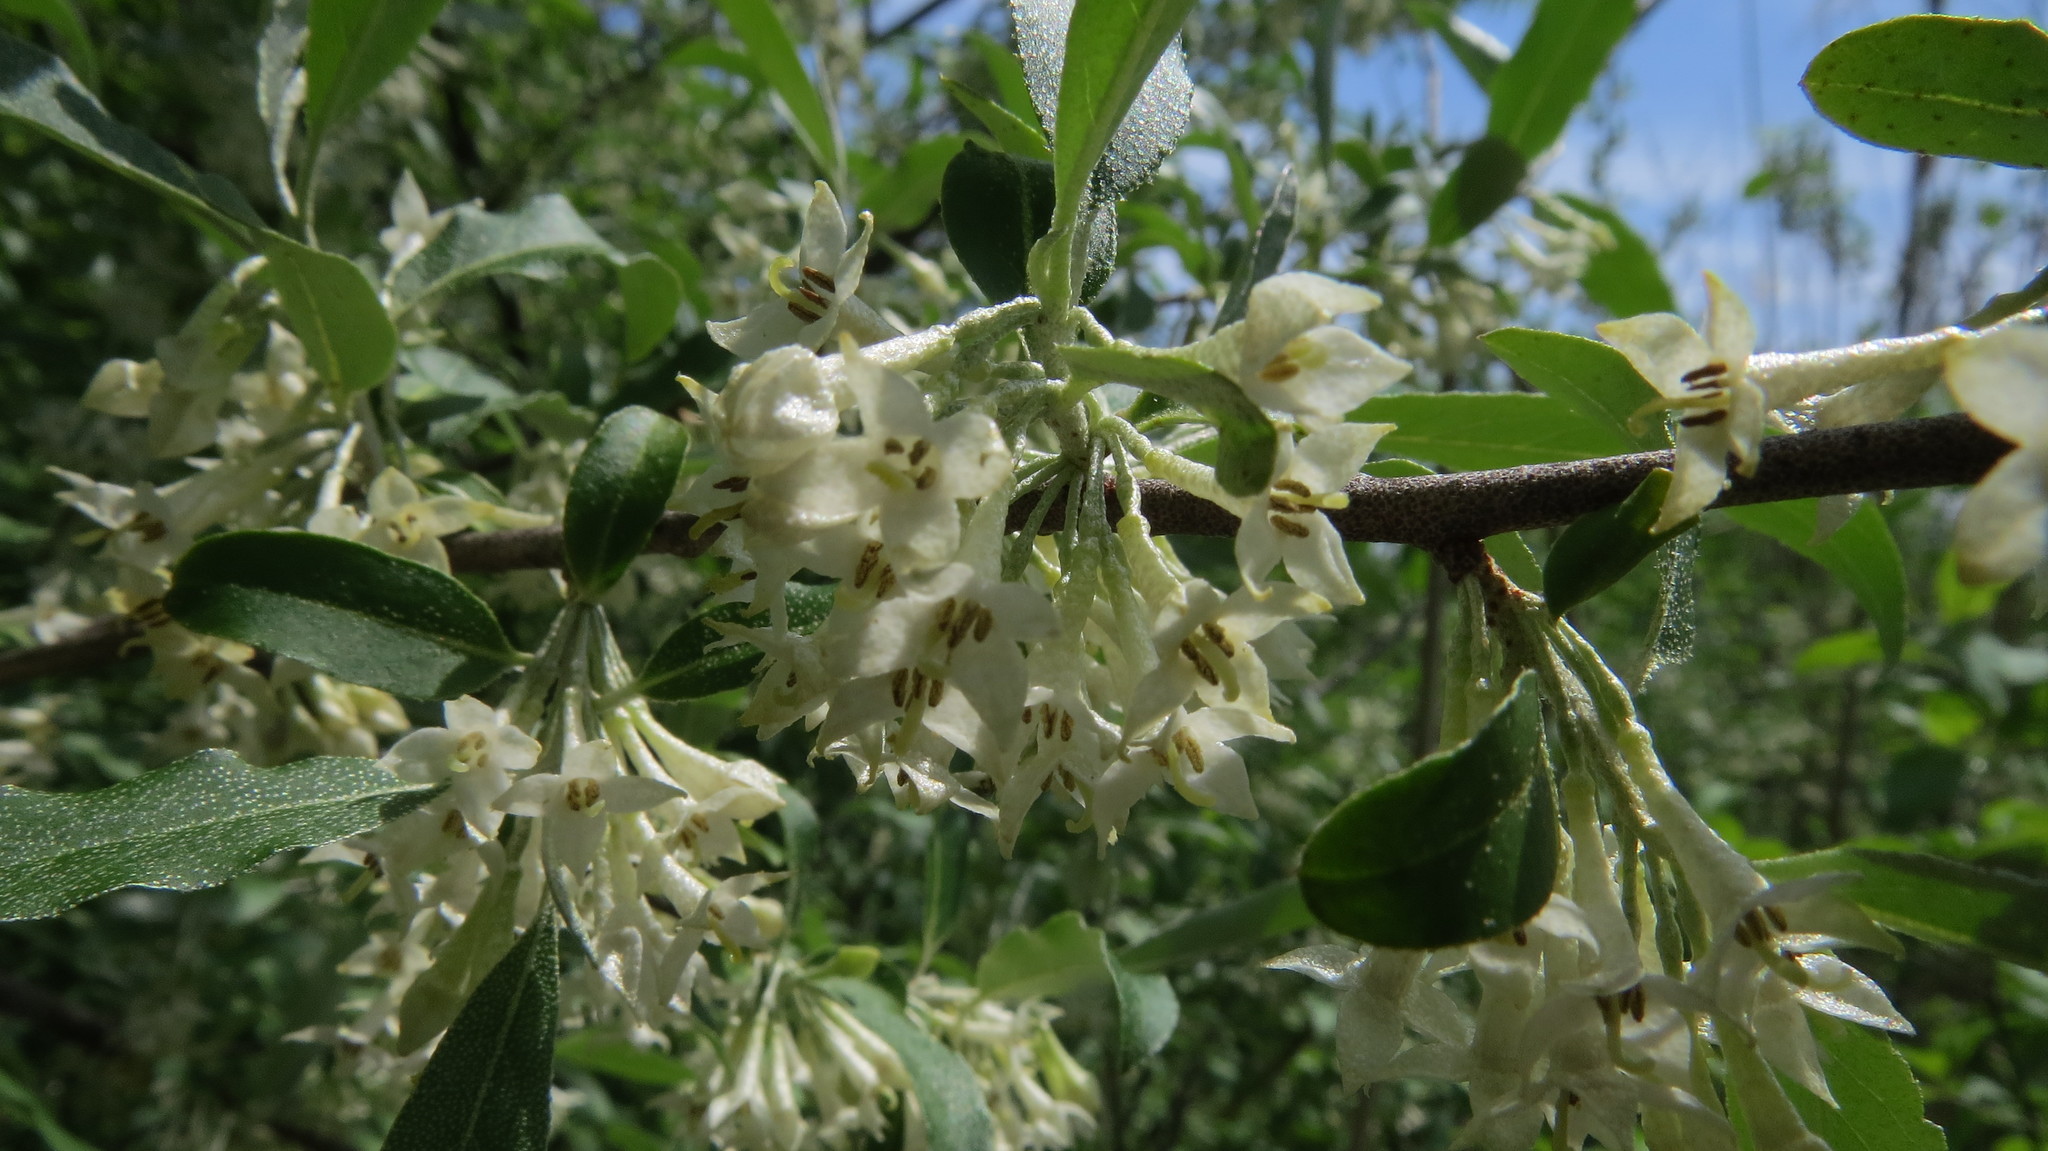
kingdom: Plantae
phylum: Tracheophyta
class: Magnoliopsida
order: Rosales
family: Elaeagnaceae
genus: Elaeagnus
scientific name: Elaeagnus umbellata
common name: Autumn olive
